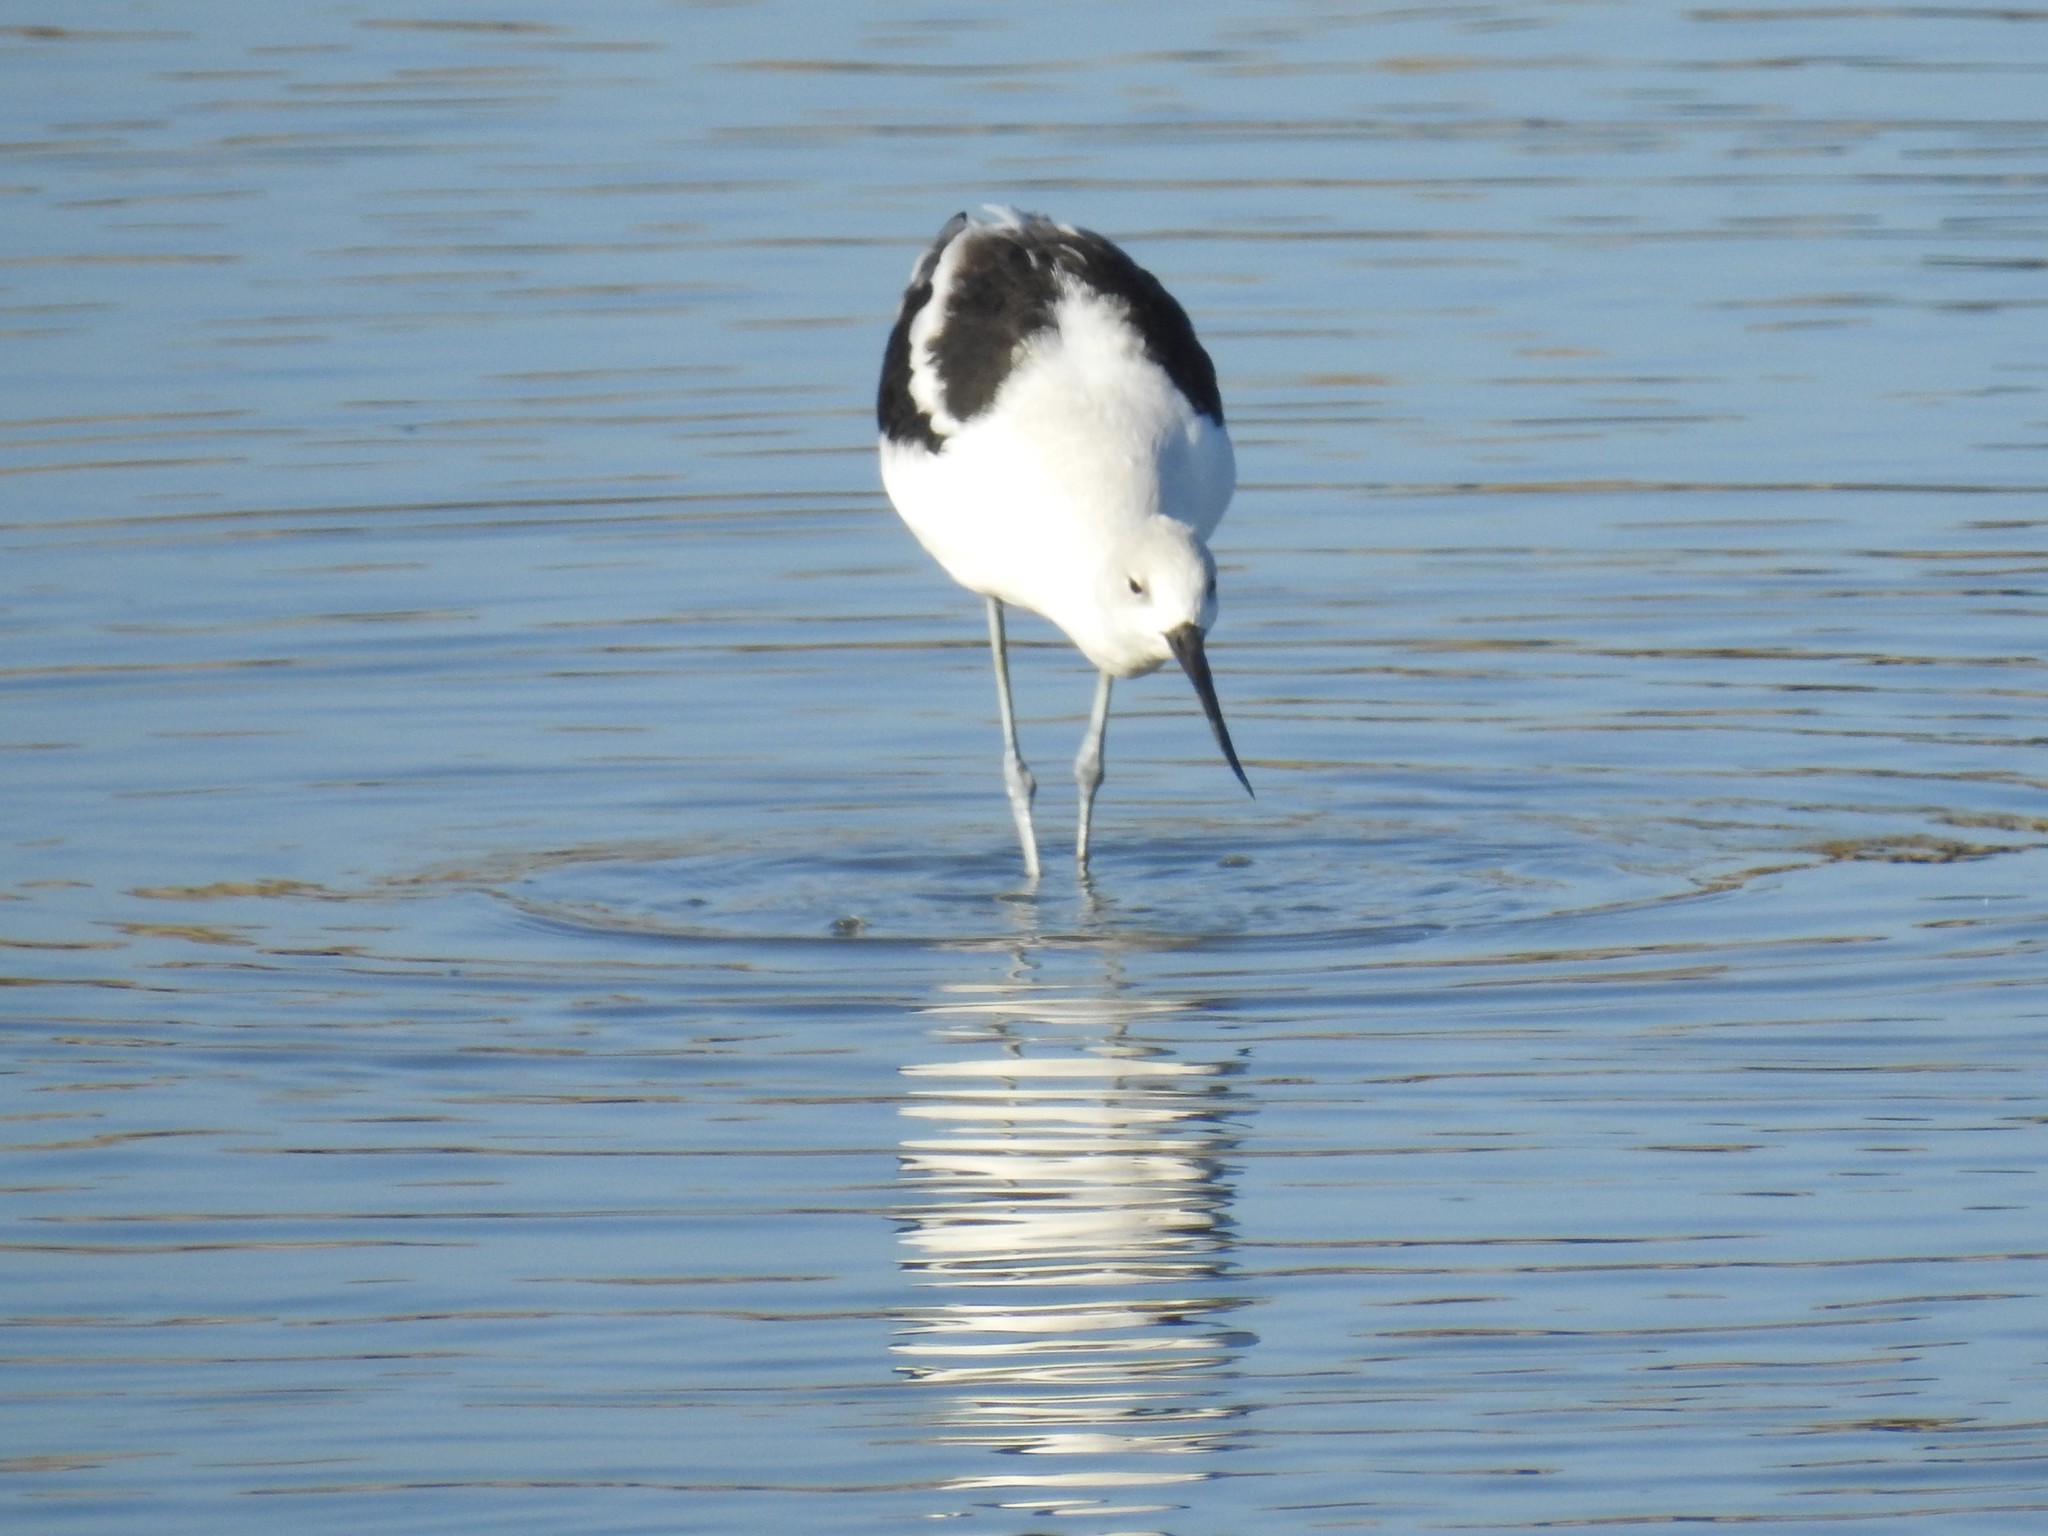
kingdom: Animalia
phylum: Chordata
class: Aves
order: Charadriiformes
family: Recurvirostridae
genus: Recurvirostra
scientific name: Recurvirostra americana
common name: American avocet
